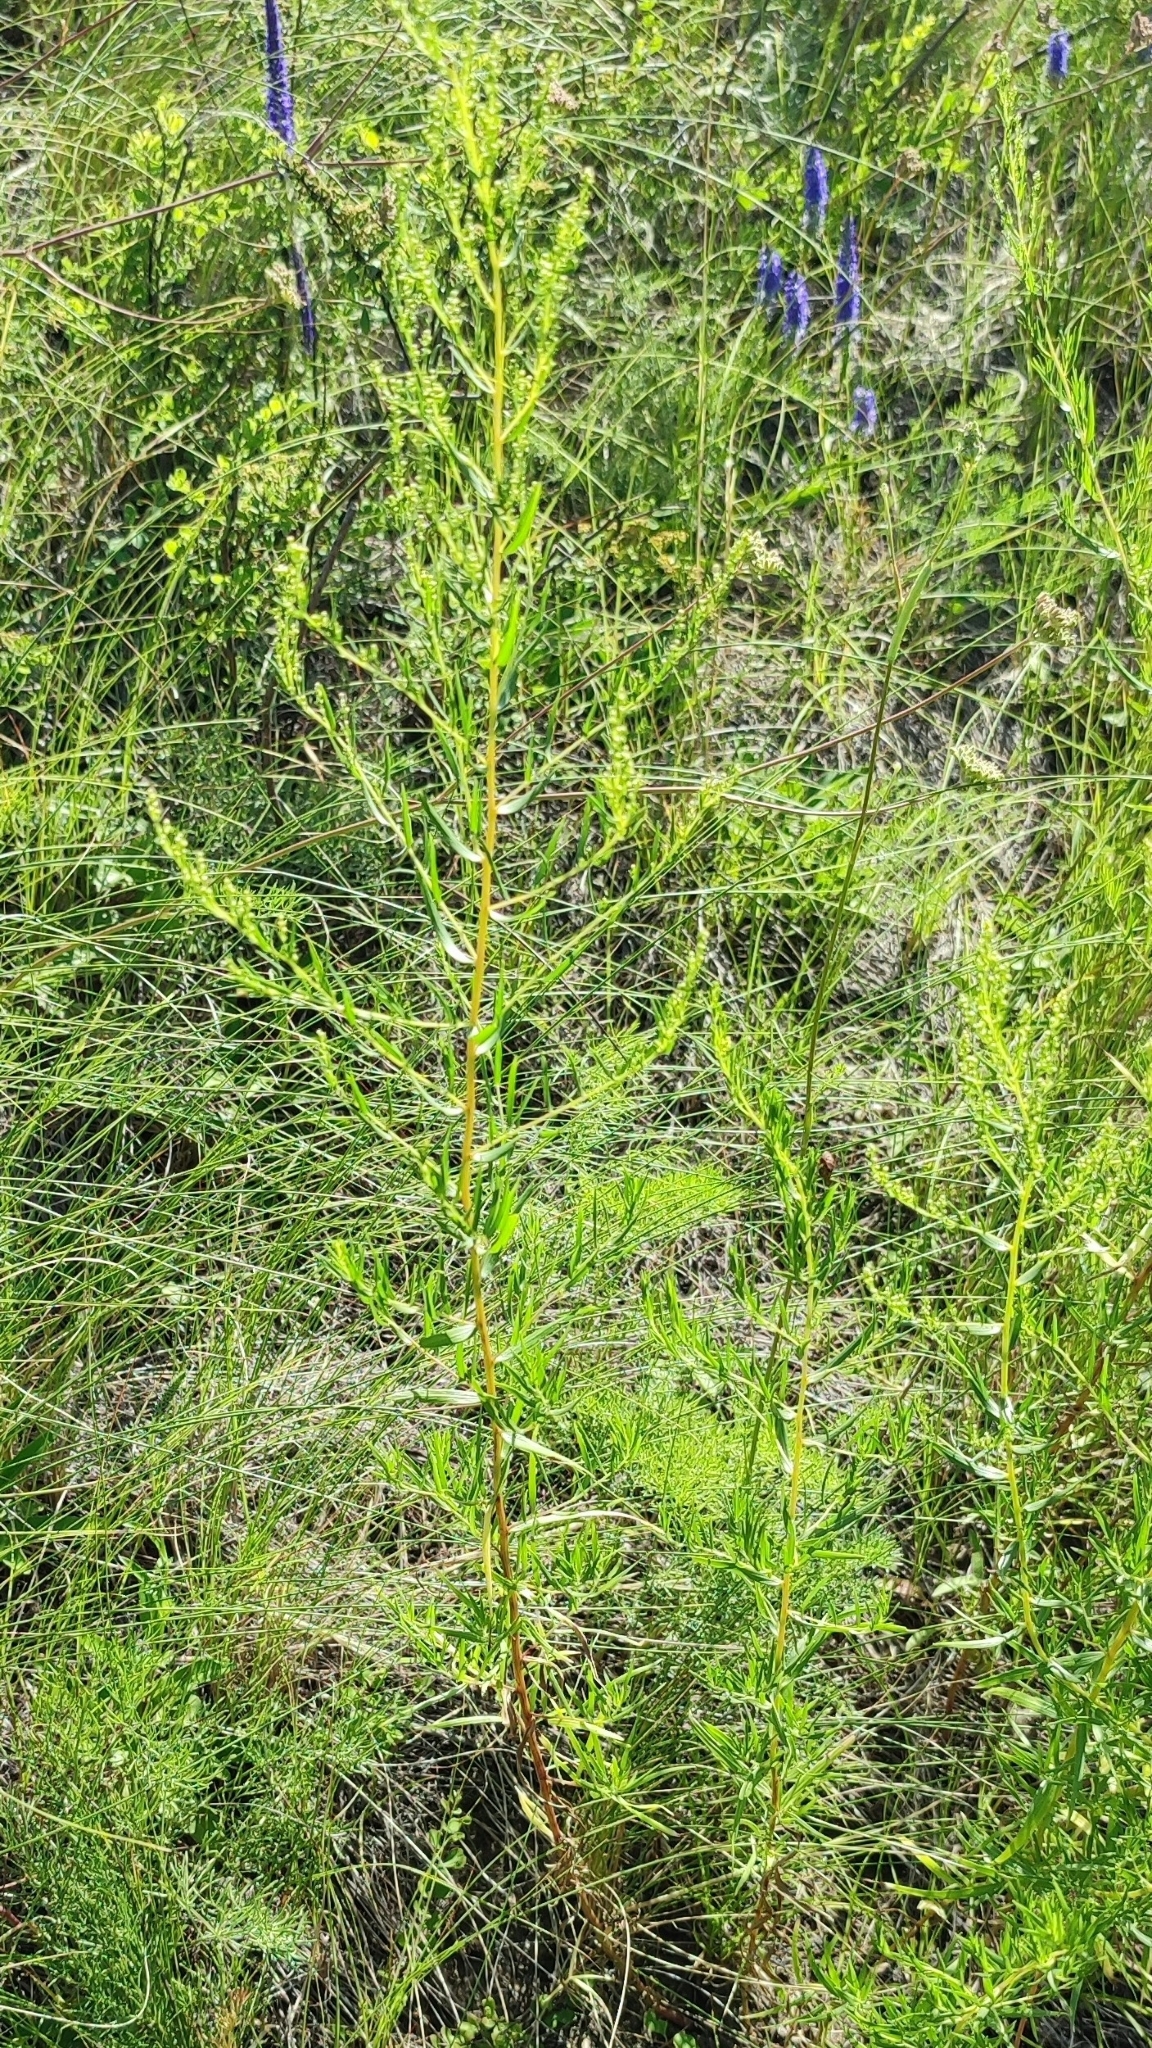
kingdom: Plantae
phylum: Tracheophyta
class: Magnoliopsida
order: Asterales
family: Asteraceae
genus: Artemisia
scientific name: Artemisia dracunculus
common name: Tarragon
